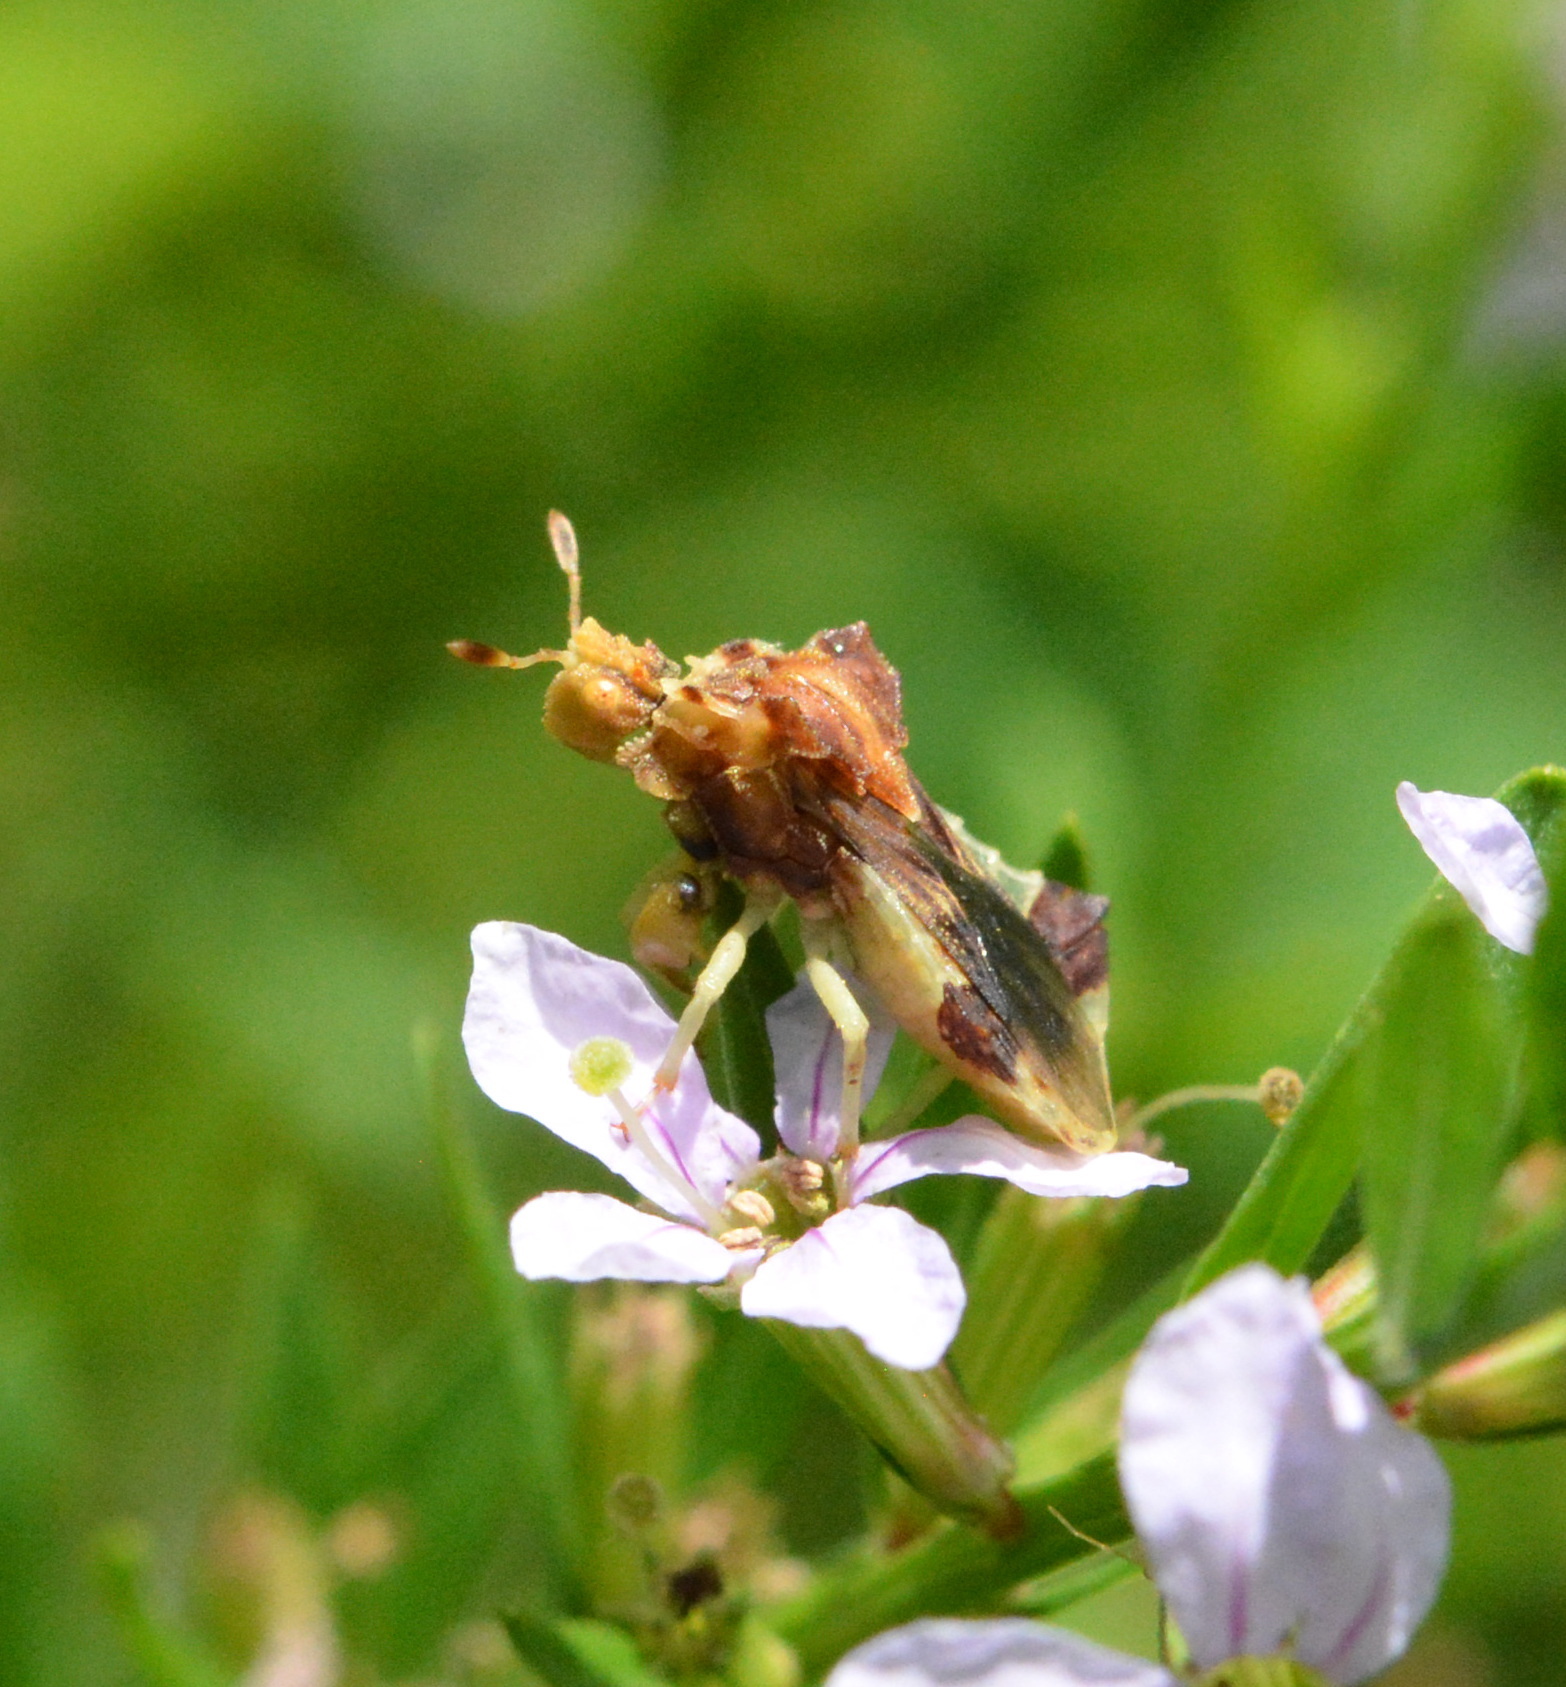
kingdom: Animalia
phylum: Arthropoda
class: Insecta
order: Hemiptera
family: Reduviidae
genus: Phymata
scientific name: Phymata fasciata
